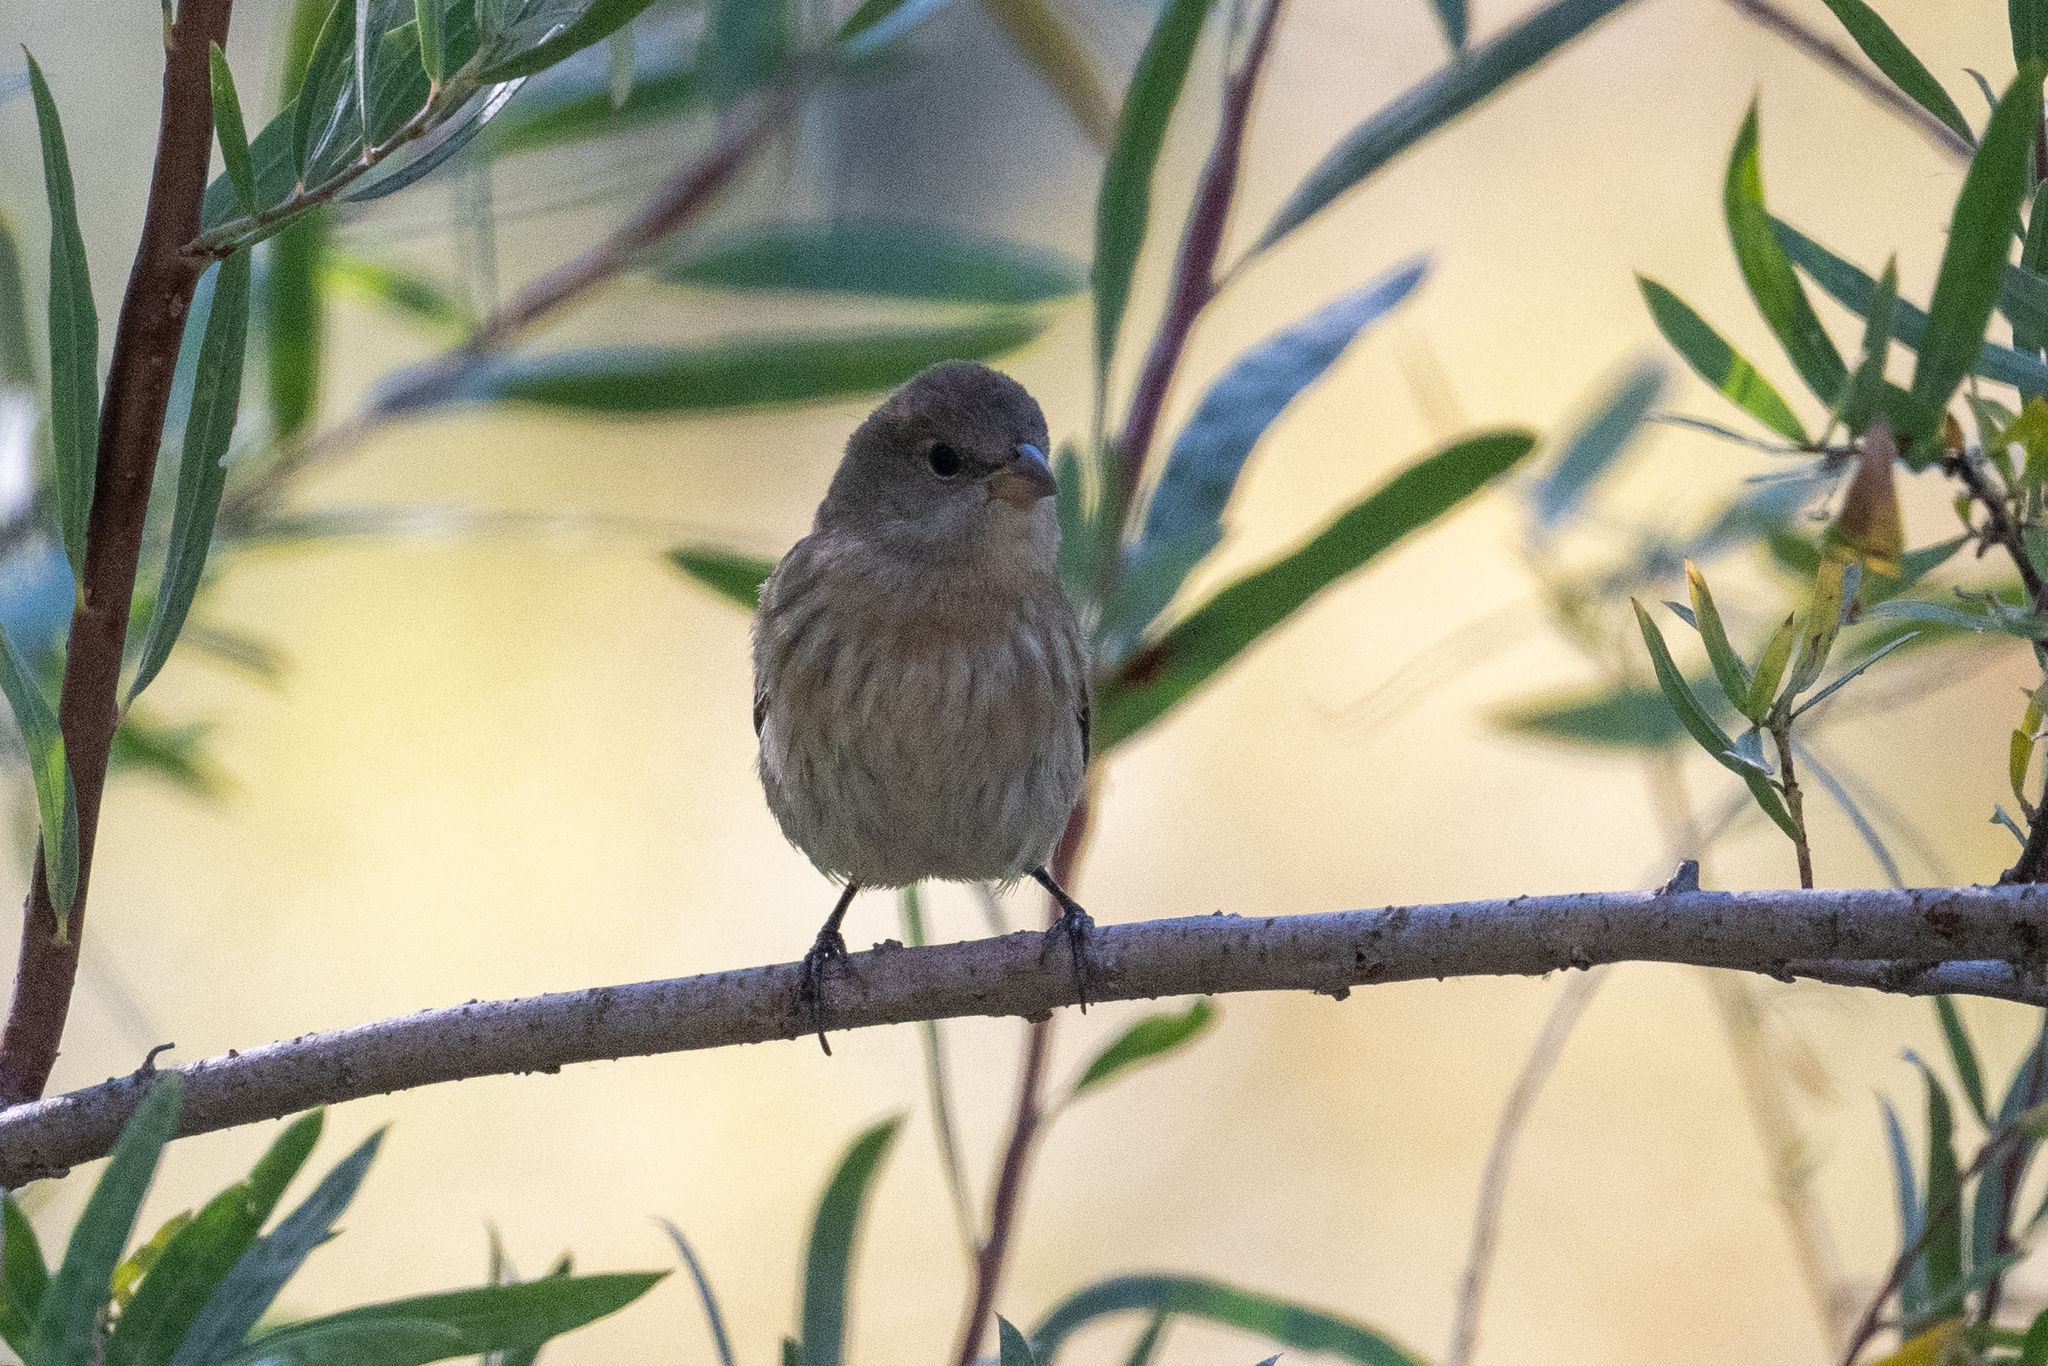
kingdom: Animalia
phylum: Chordata
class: Aves
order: Passeriformes
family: Cardinalidae
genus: Passerina
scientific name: Passerina amoena
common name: Lazuli bunting
